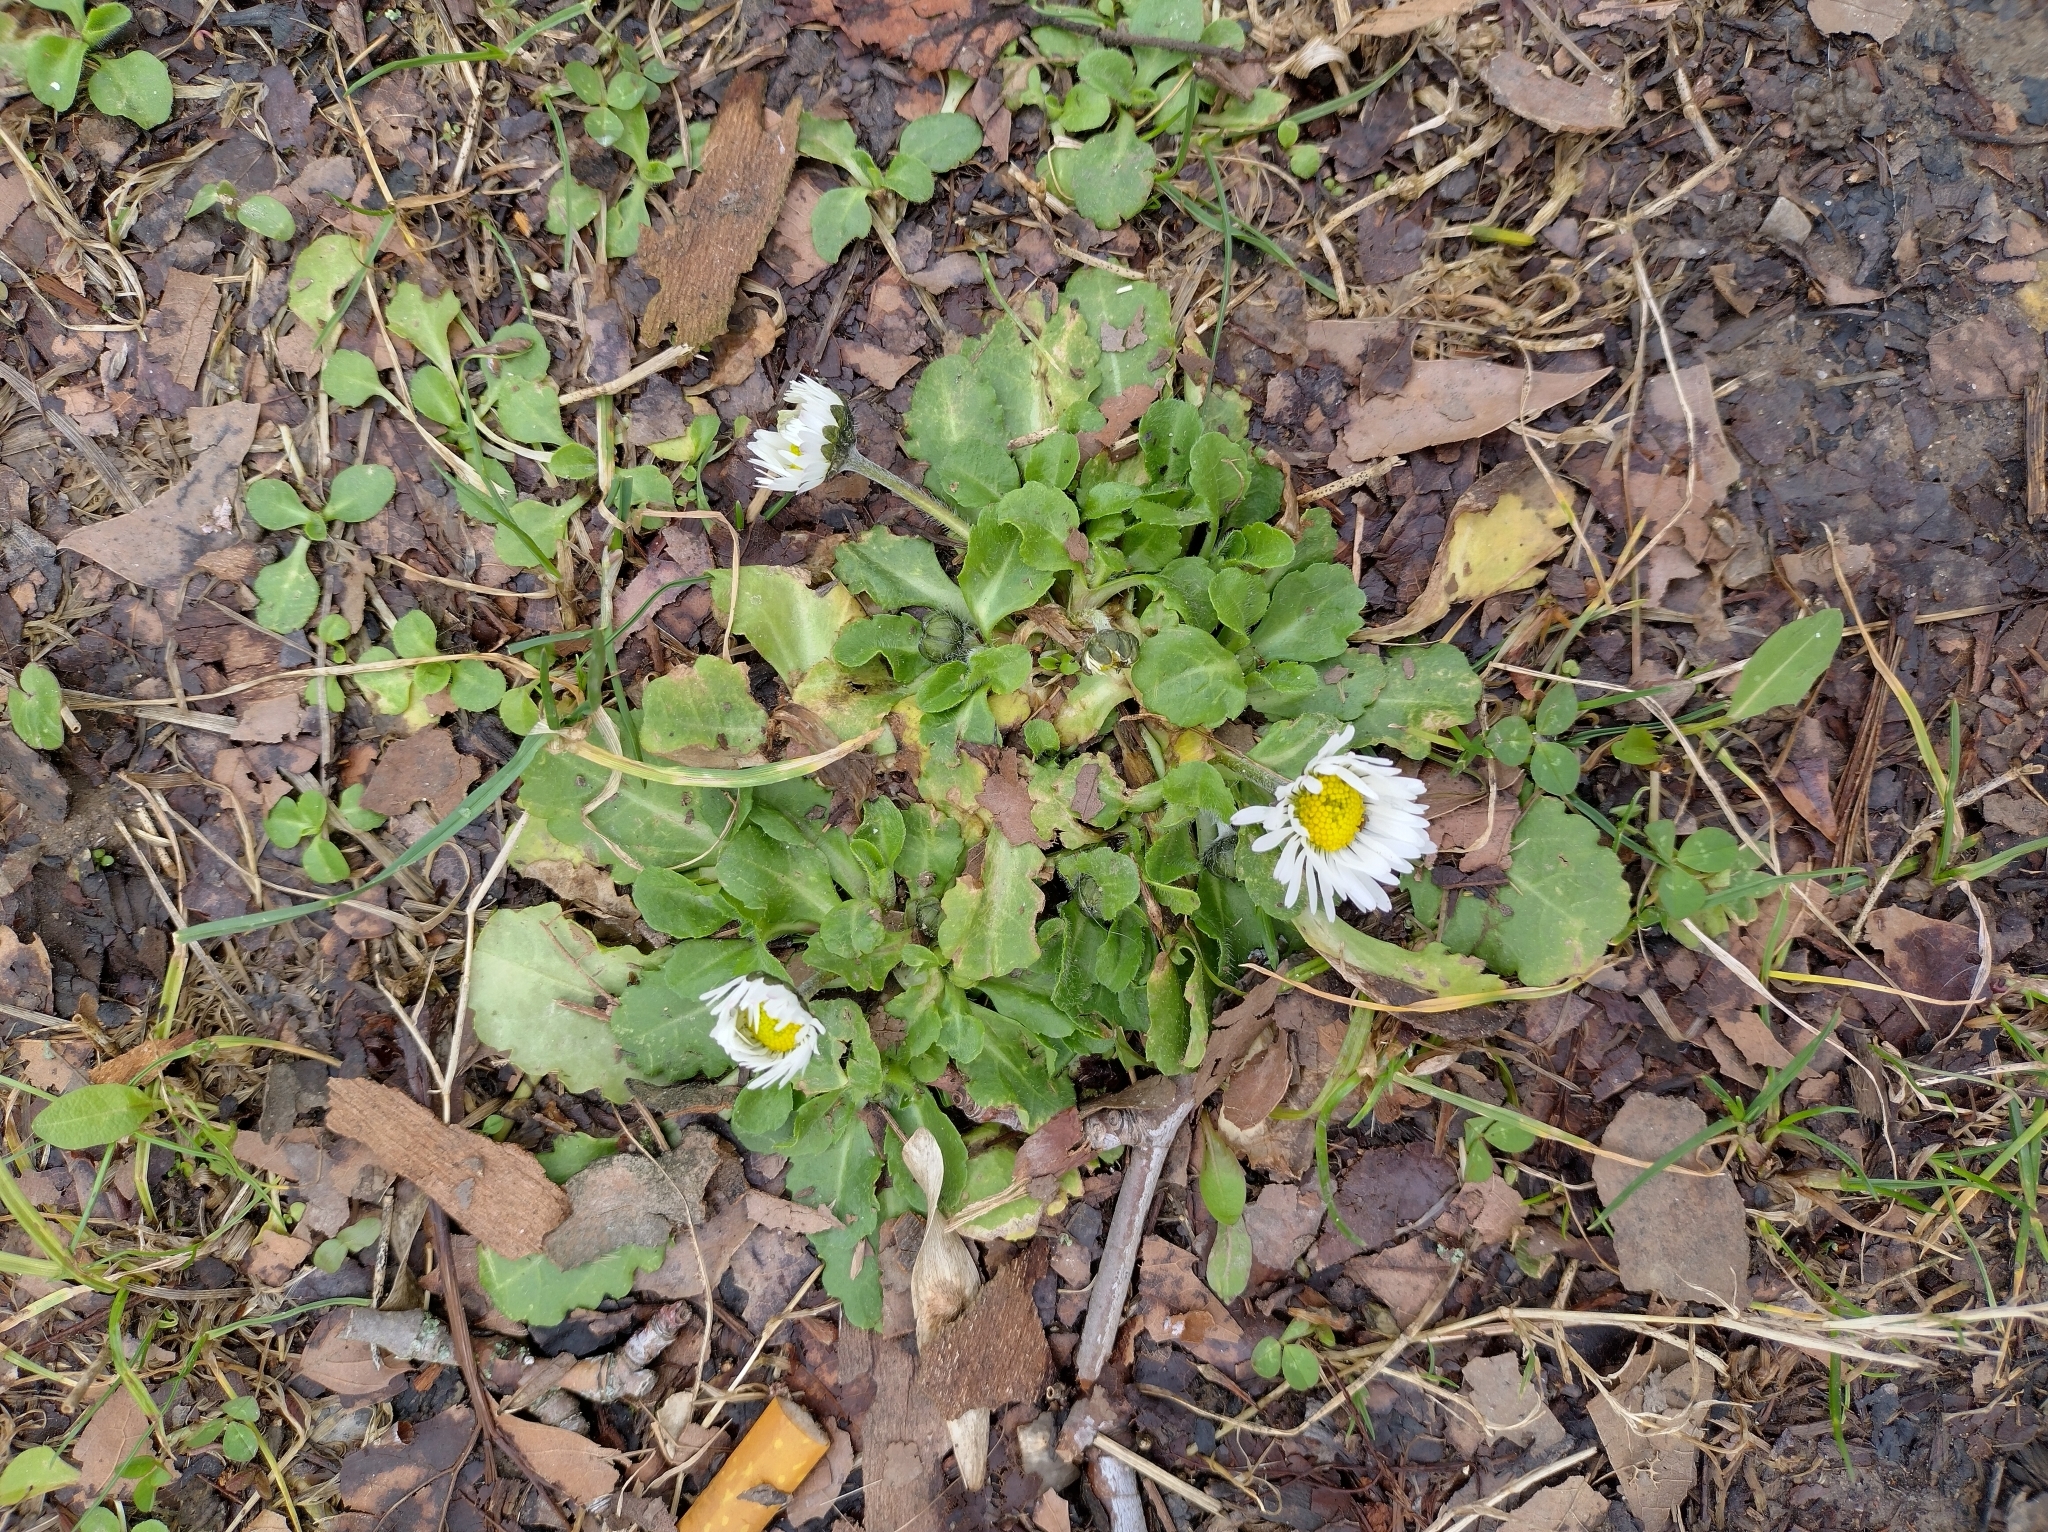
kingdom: Plantae
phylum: Tracheophyta
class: Magnoliopsida
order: Asterales
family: Asteraceae
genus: Bellis
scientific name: Bellis perennis
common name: Lawndaisy
